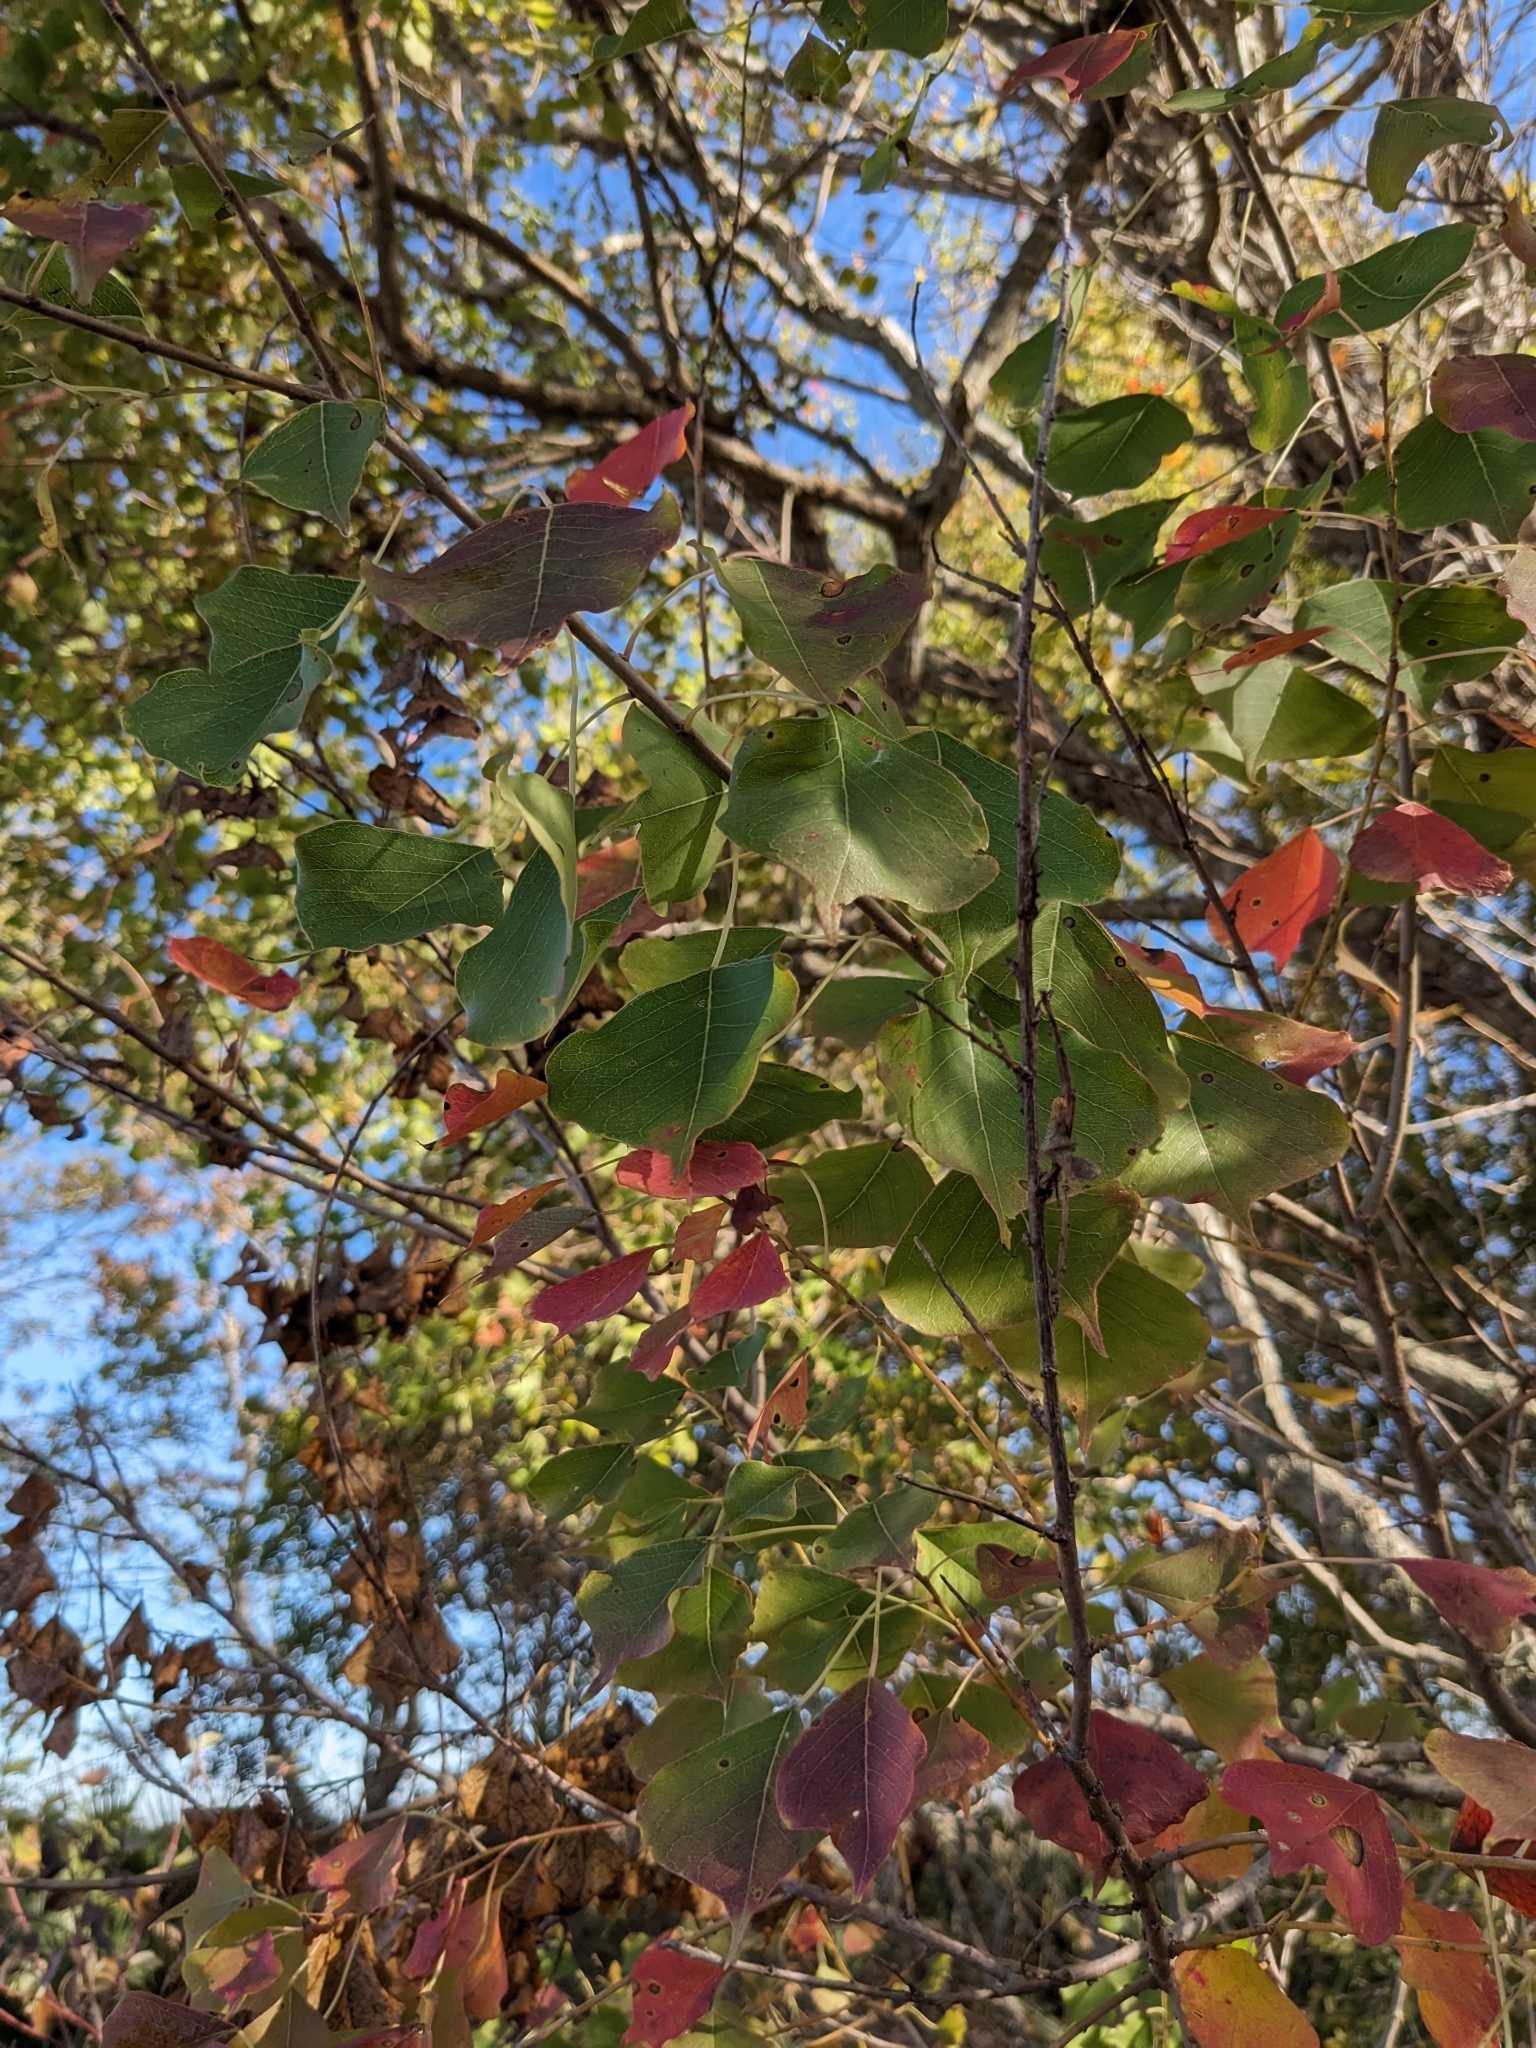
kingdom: Plantae
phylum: Tracheophyta
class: Magnoliopsida
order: Malpighiales
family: Euphorbiaceae
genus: Triadica
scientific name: Triadica sebifera
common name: Chinese tallow
